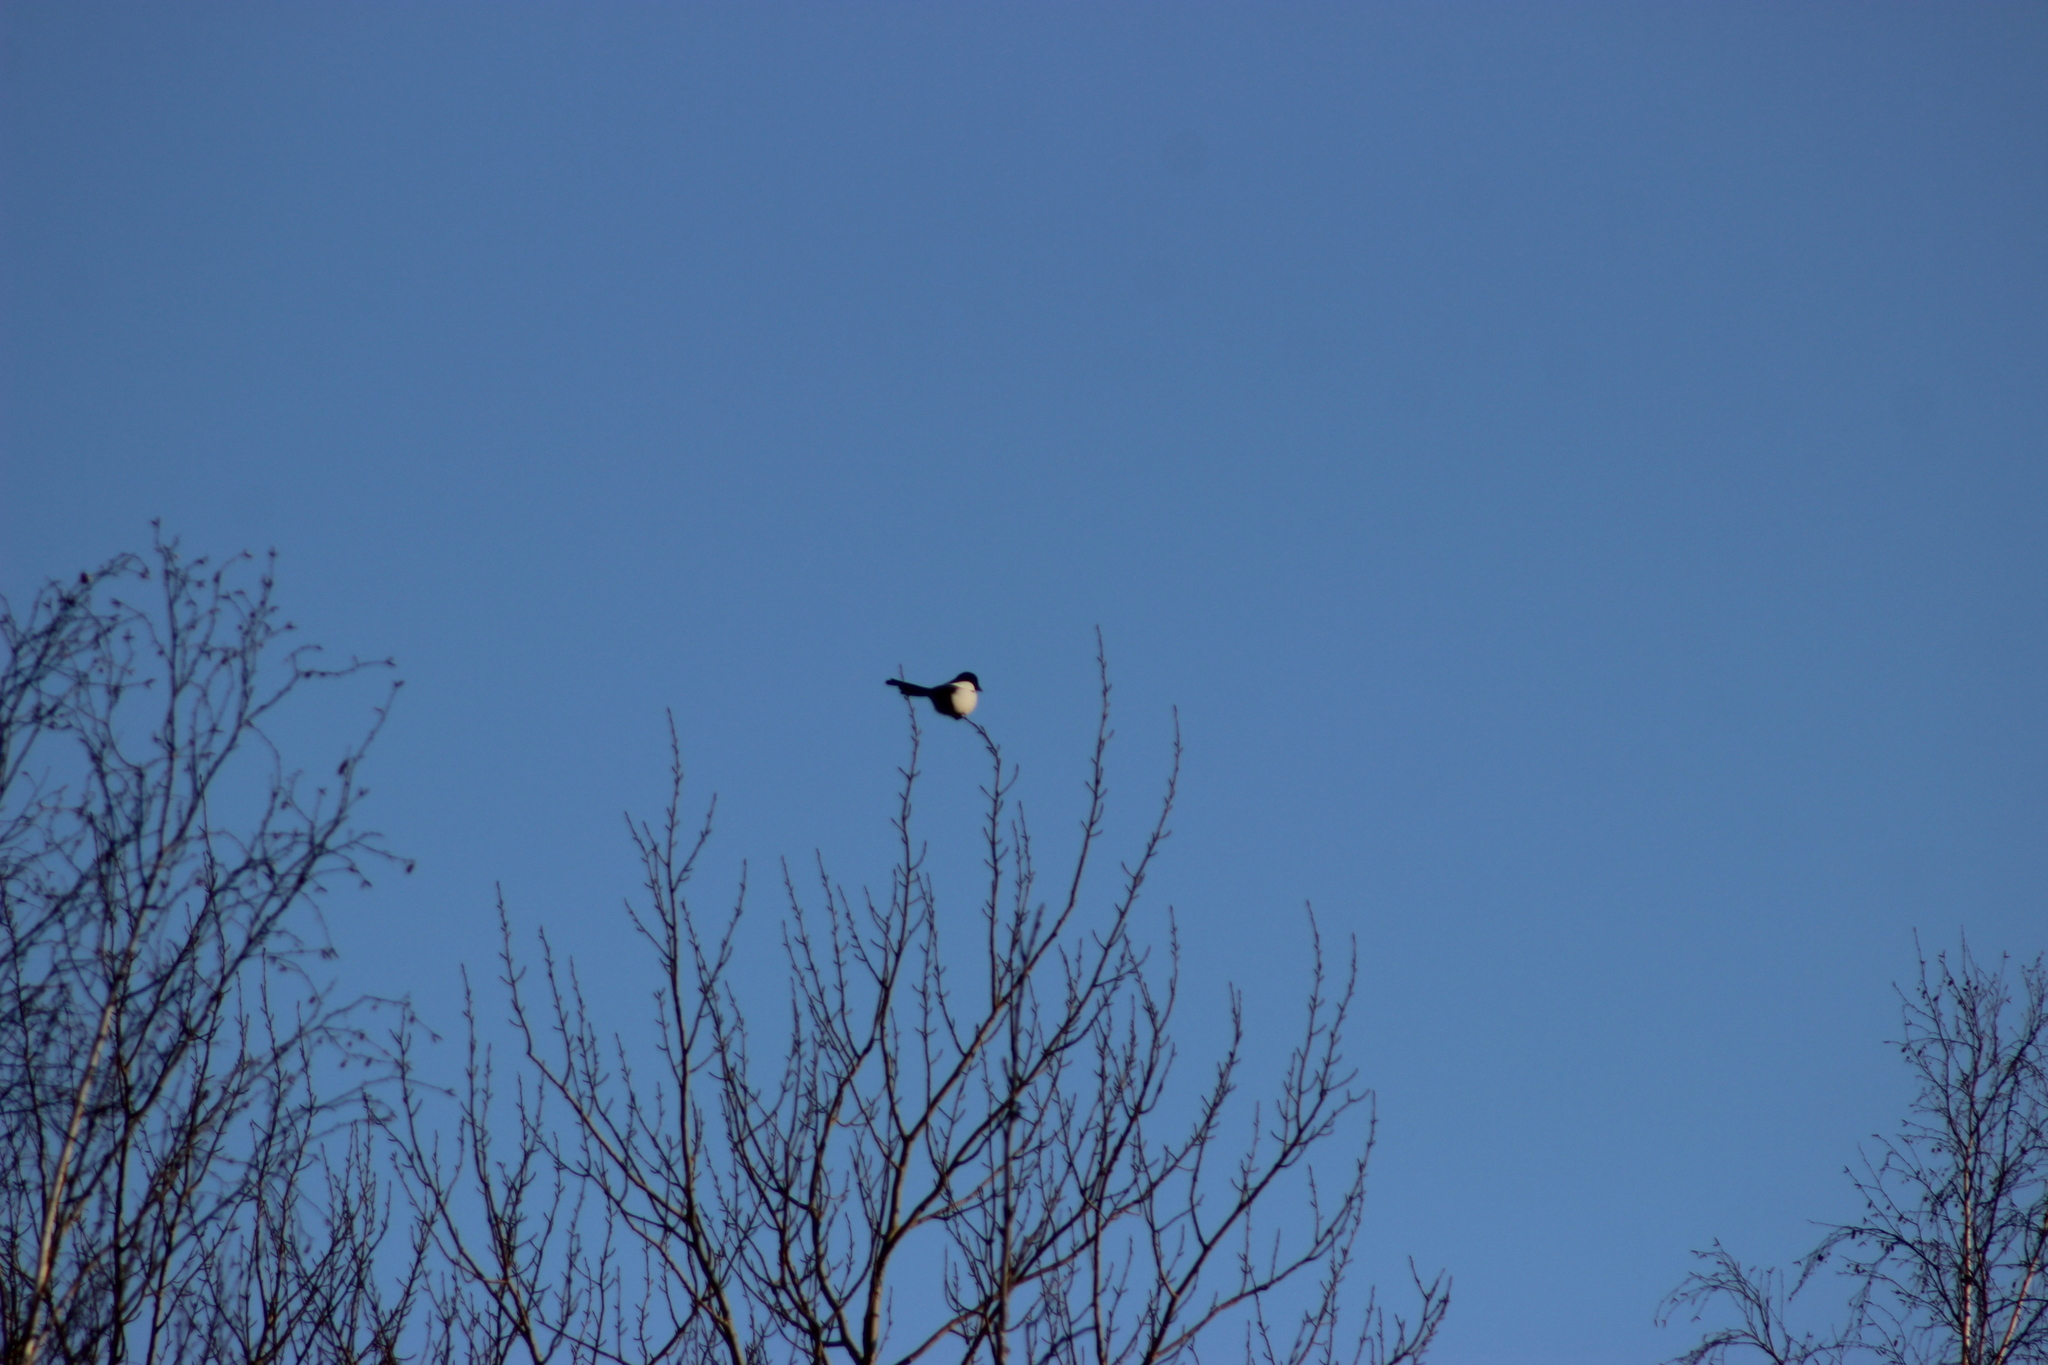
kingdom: Animalia
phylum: Chordata
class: Aves
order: Passeriformes
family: Corvidae
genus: Pica
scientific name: Pica pica
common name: Eurasian magpie
